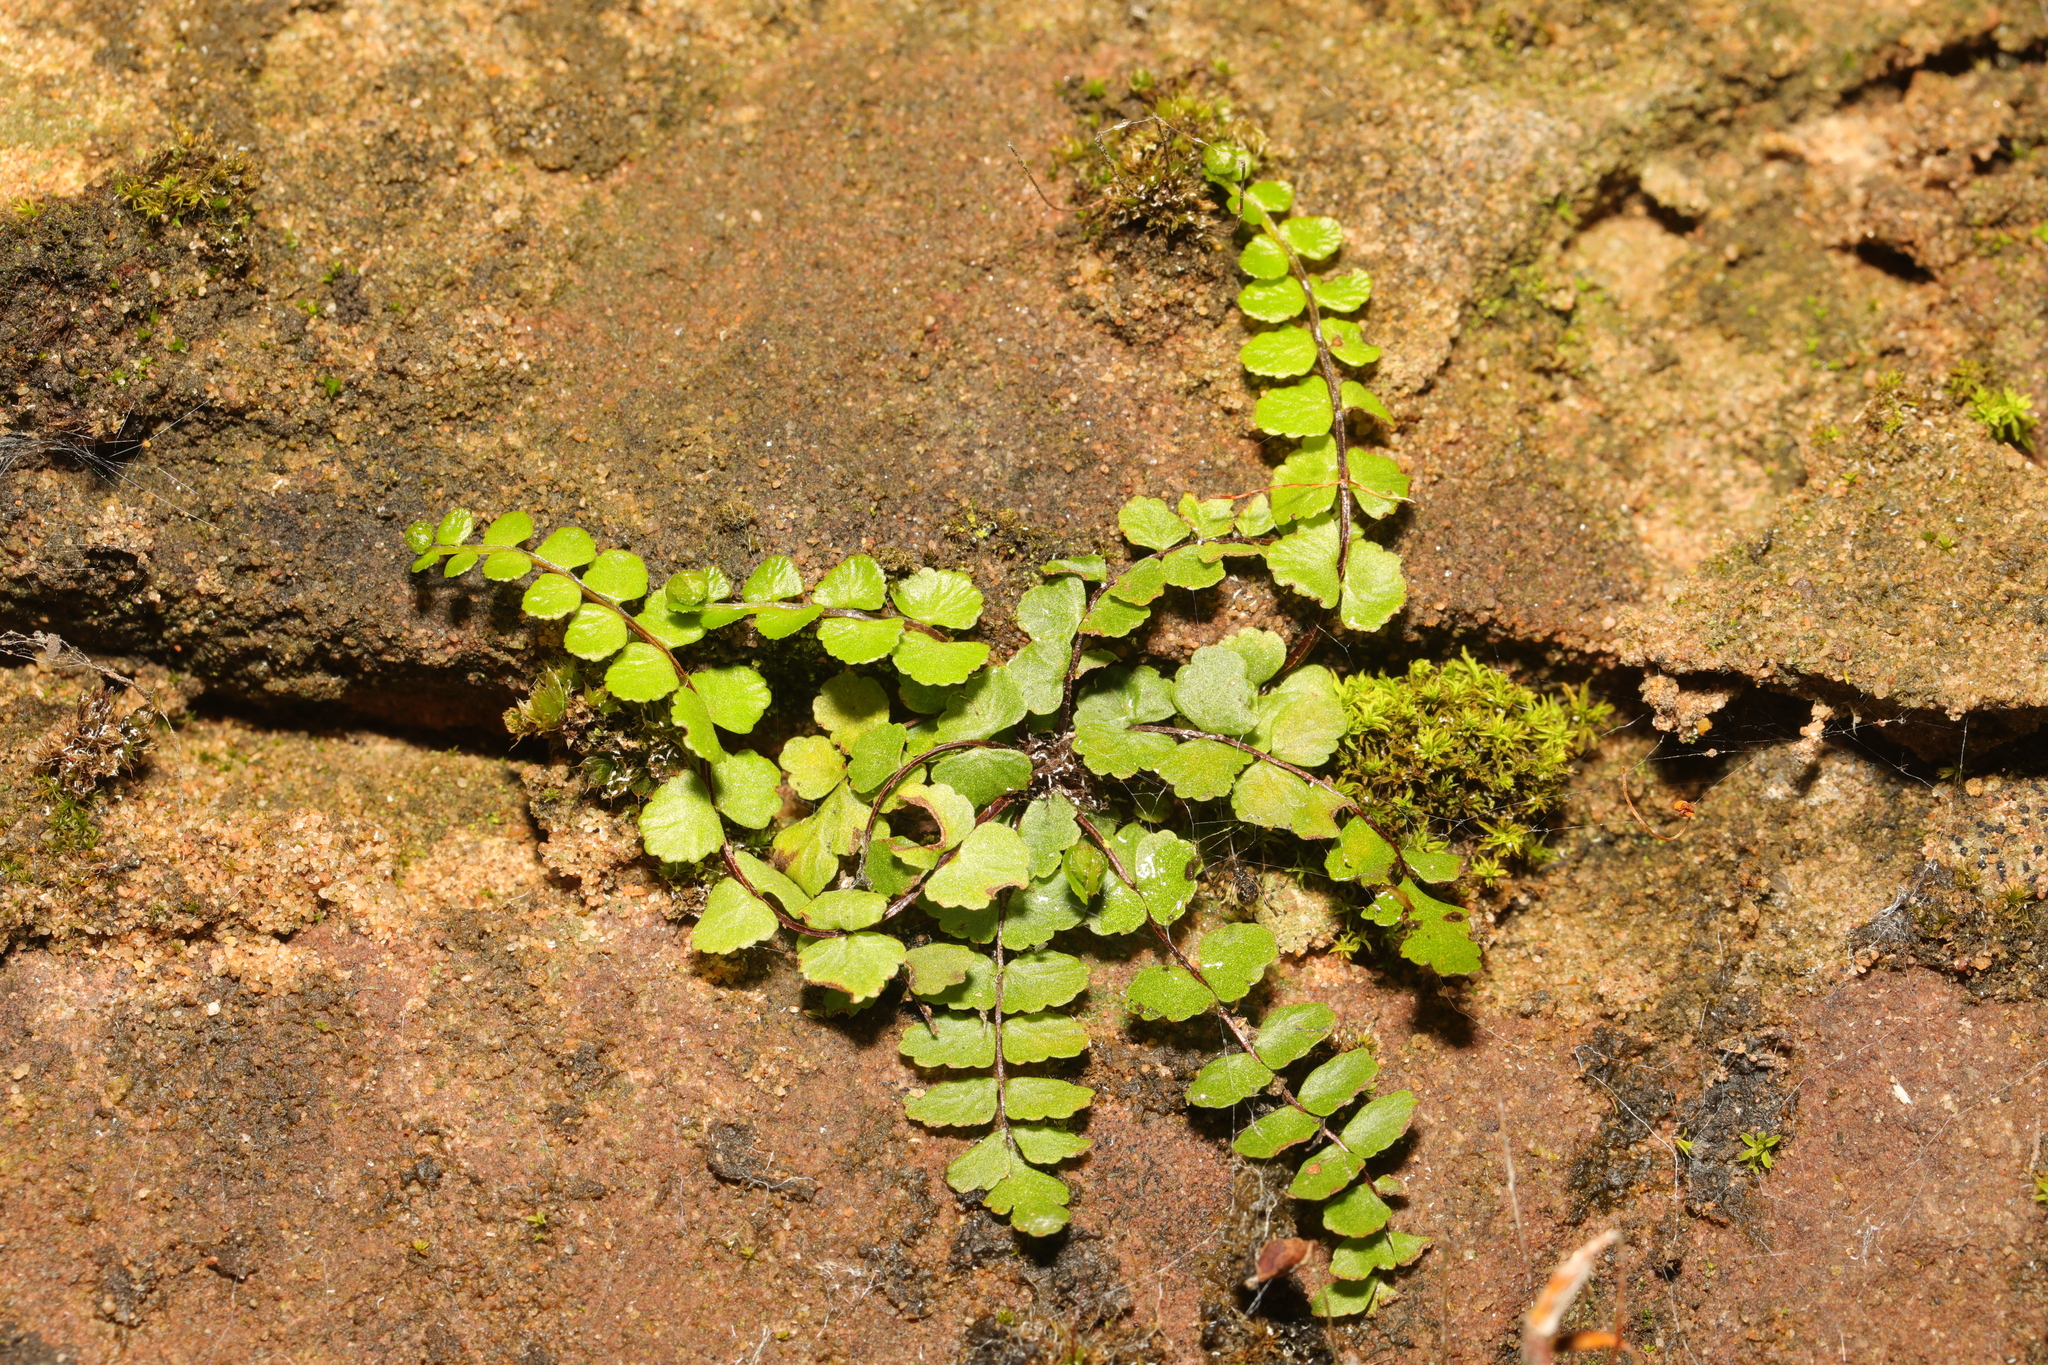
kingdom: Plantae
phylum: Tracheophyta
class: Polypodiopsida
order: Polypodiales
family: Aspleniaceae
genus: Asplenium
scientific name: Asplenium trichomanes
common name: Maidenhair spleenwort
